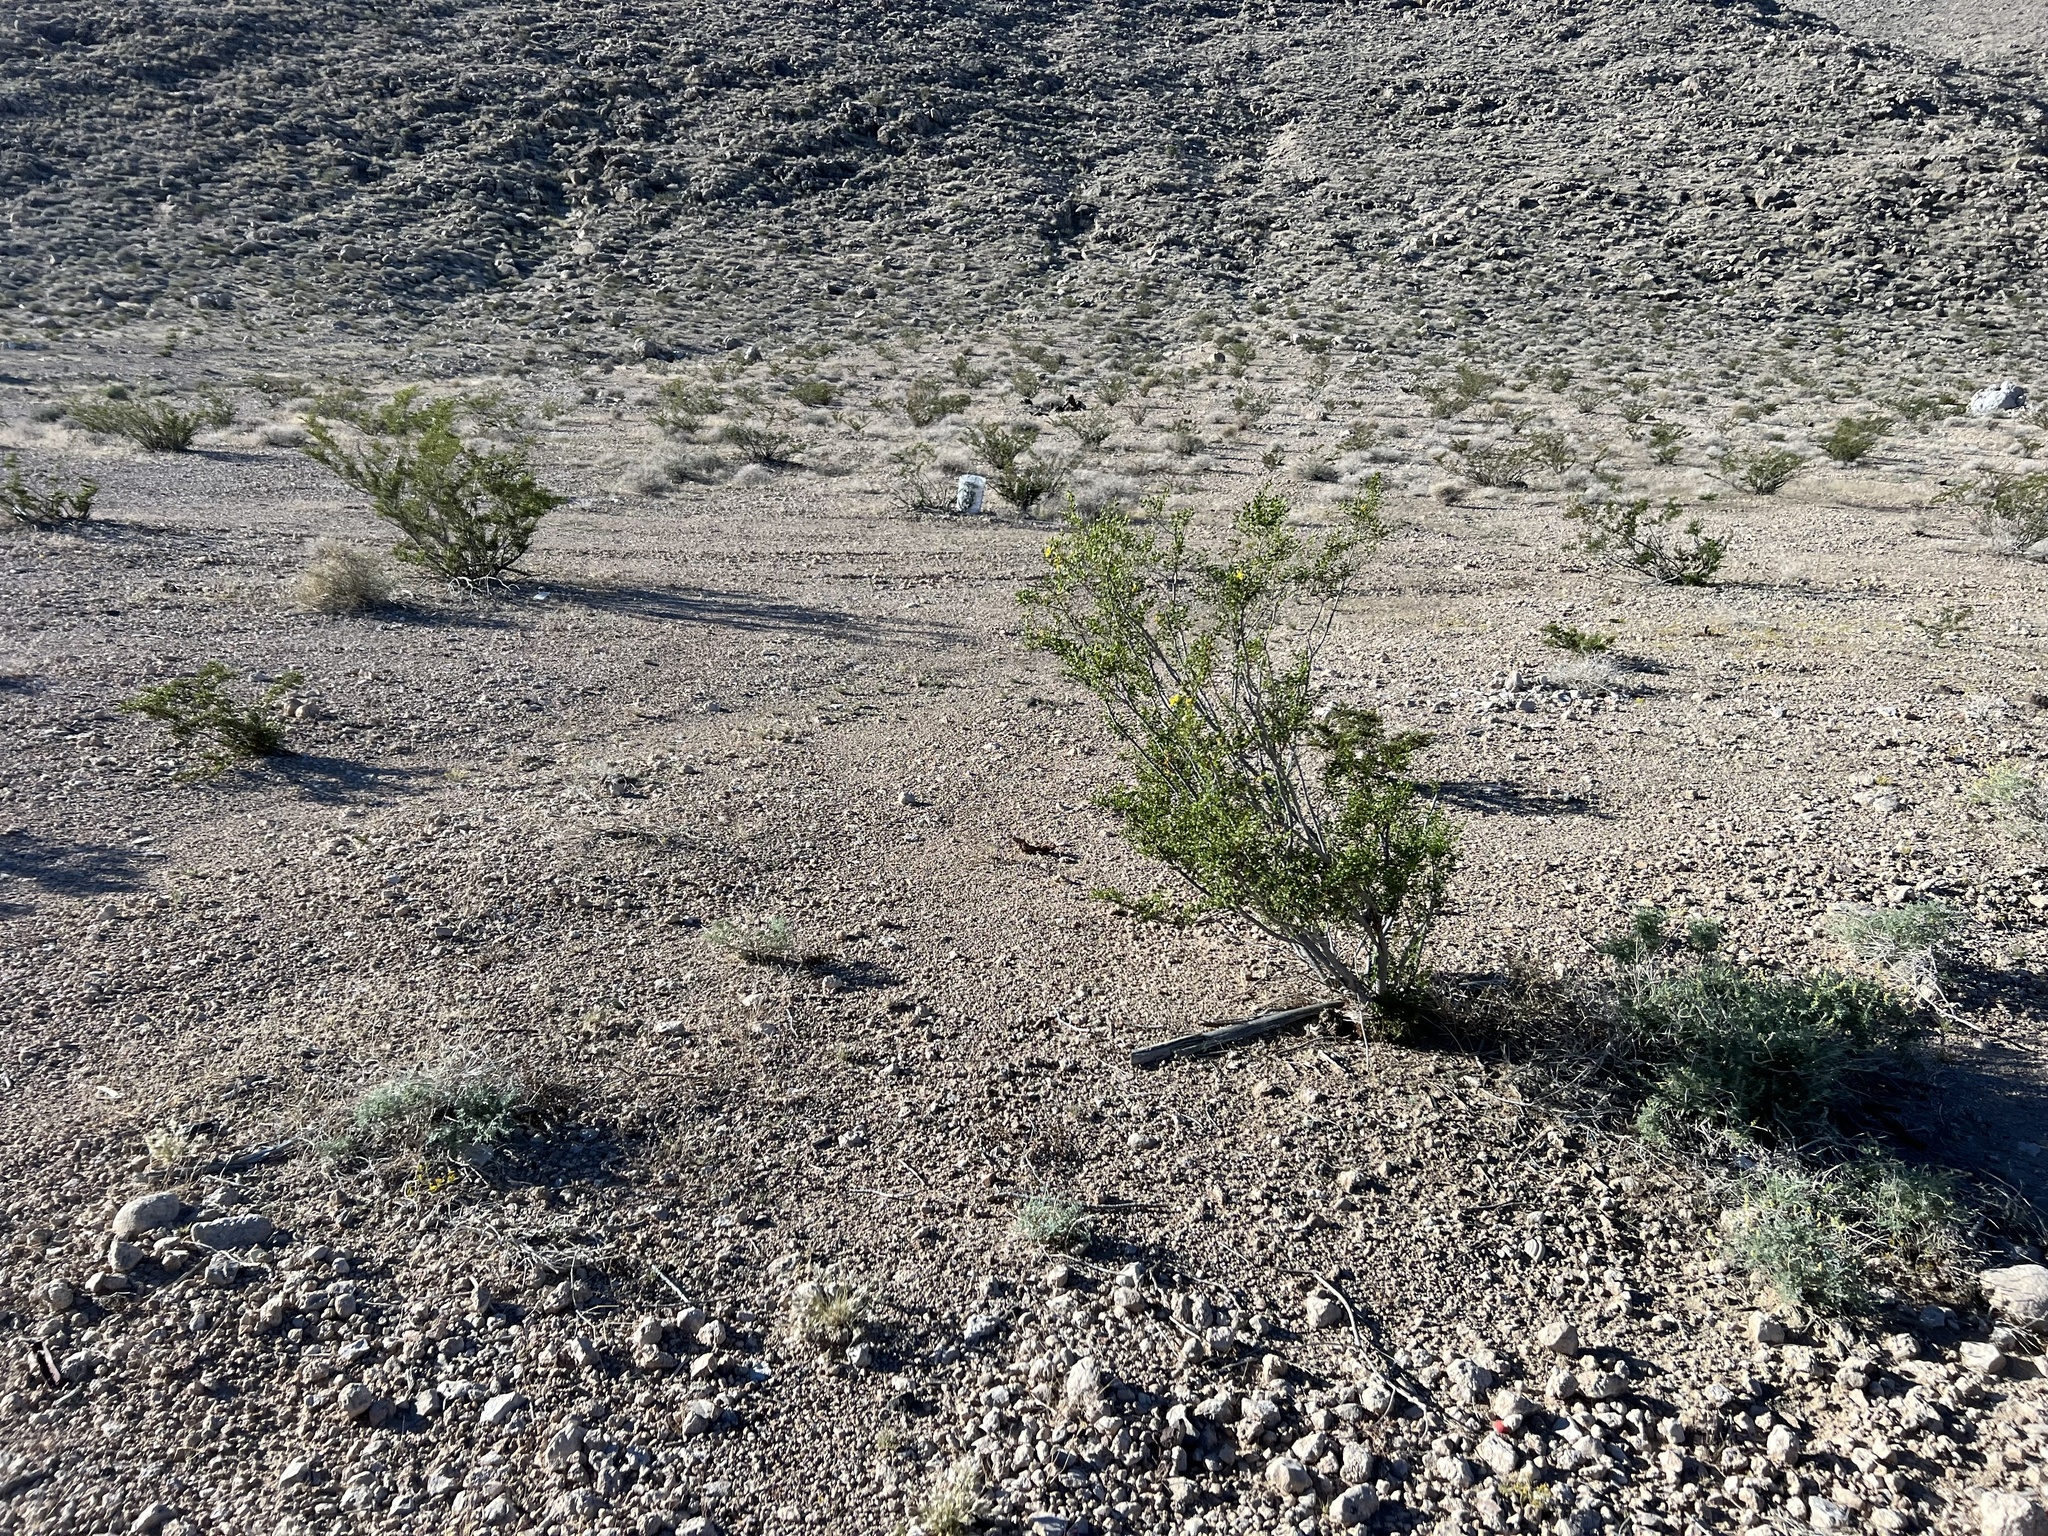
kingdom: Plantae
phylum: Tracheophyta
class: Magnoliopsida
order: Zygophyllales
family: Zygophyllaceae
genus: Larrea
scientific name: Larrea tridentata
